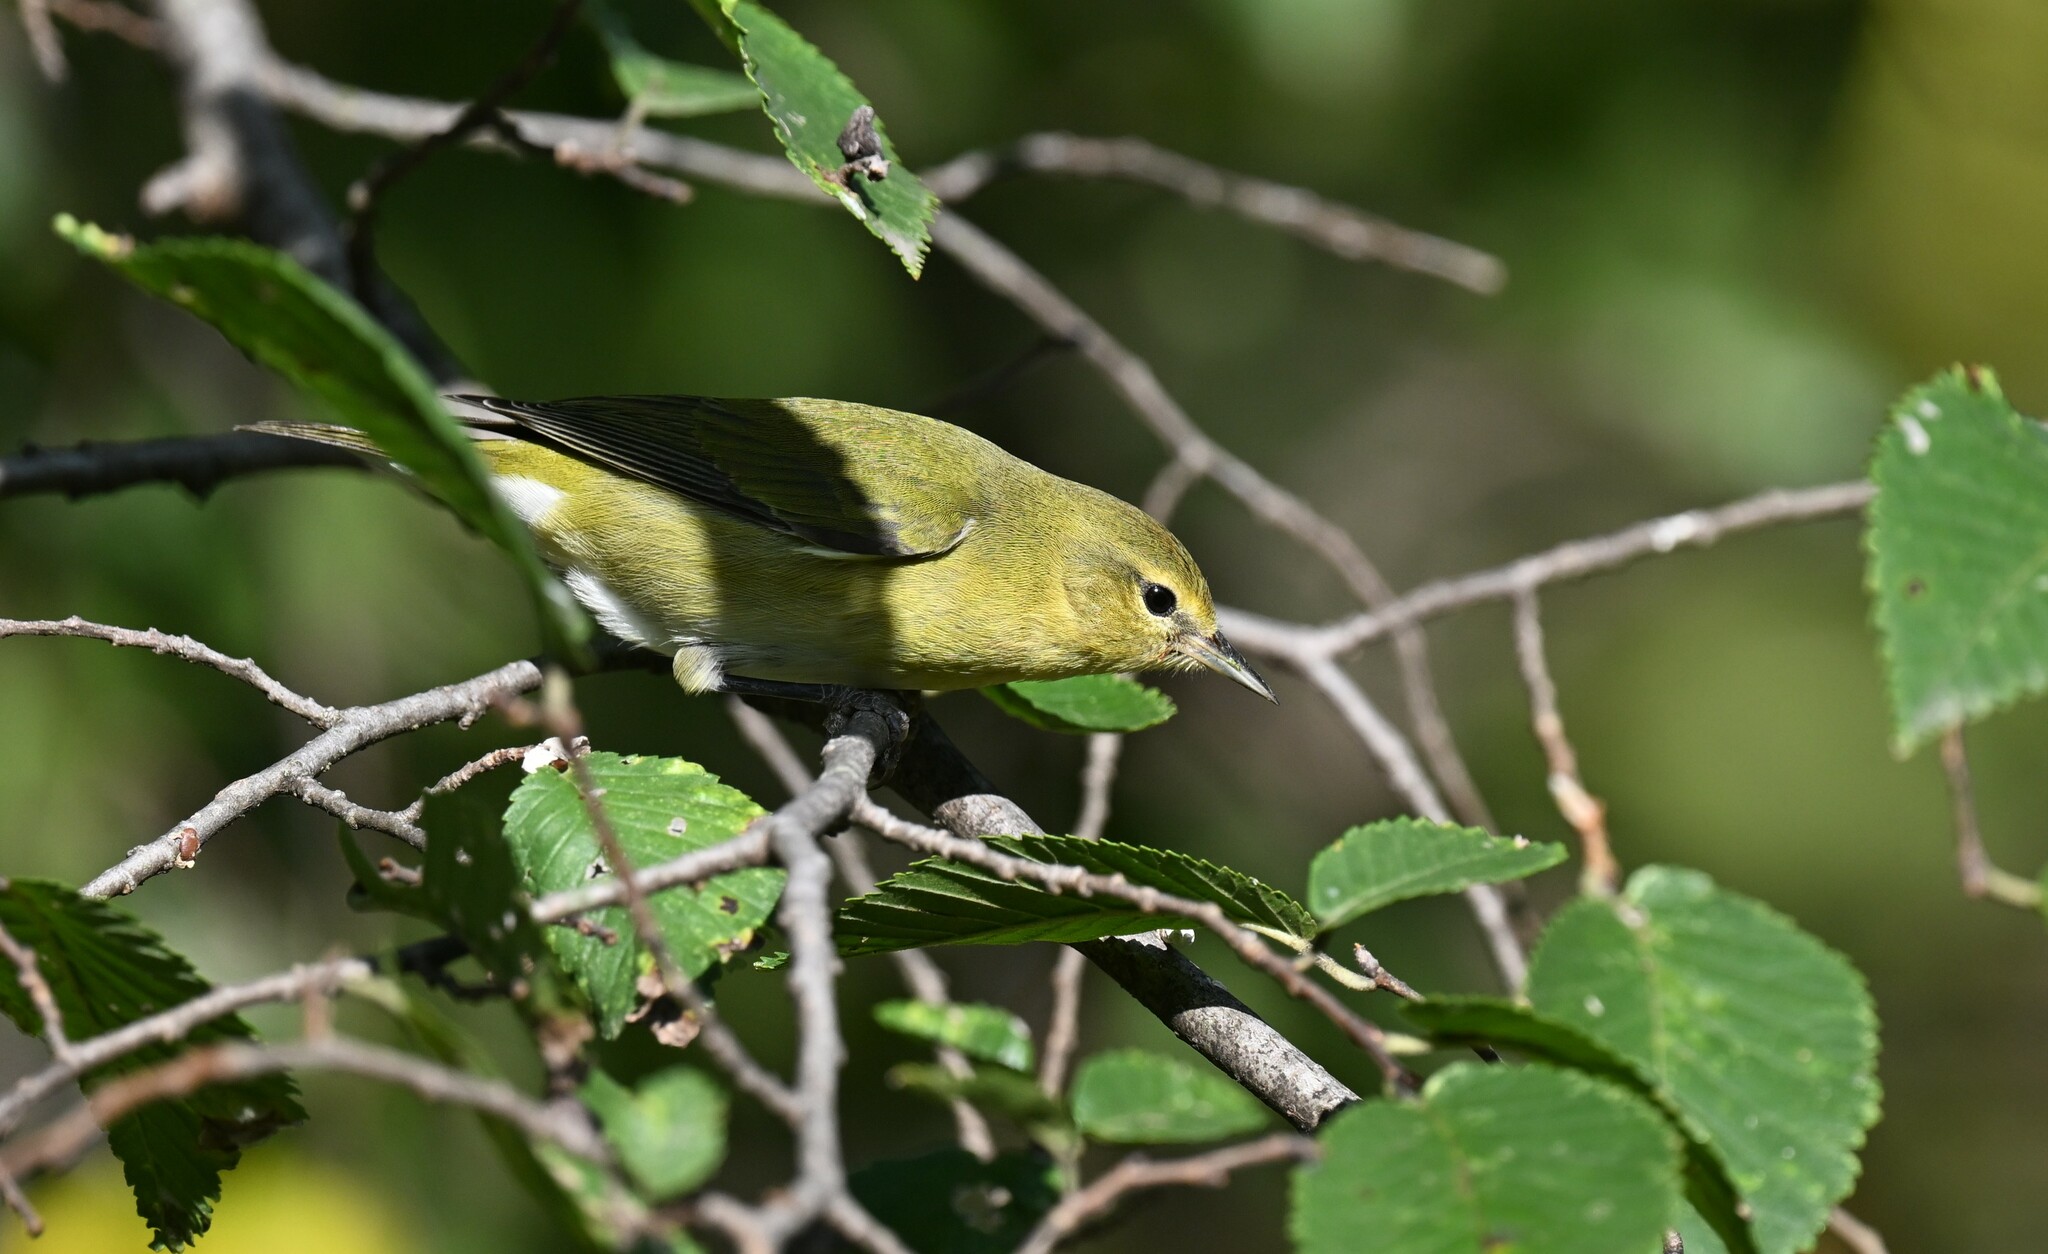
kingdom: Animalia
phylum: Chordata
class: Aves
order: Passeriformes
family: Parulidae
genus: Leiothlypis
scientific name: Leiothlypis peregrina
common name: Tennessee warbler
